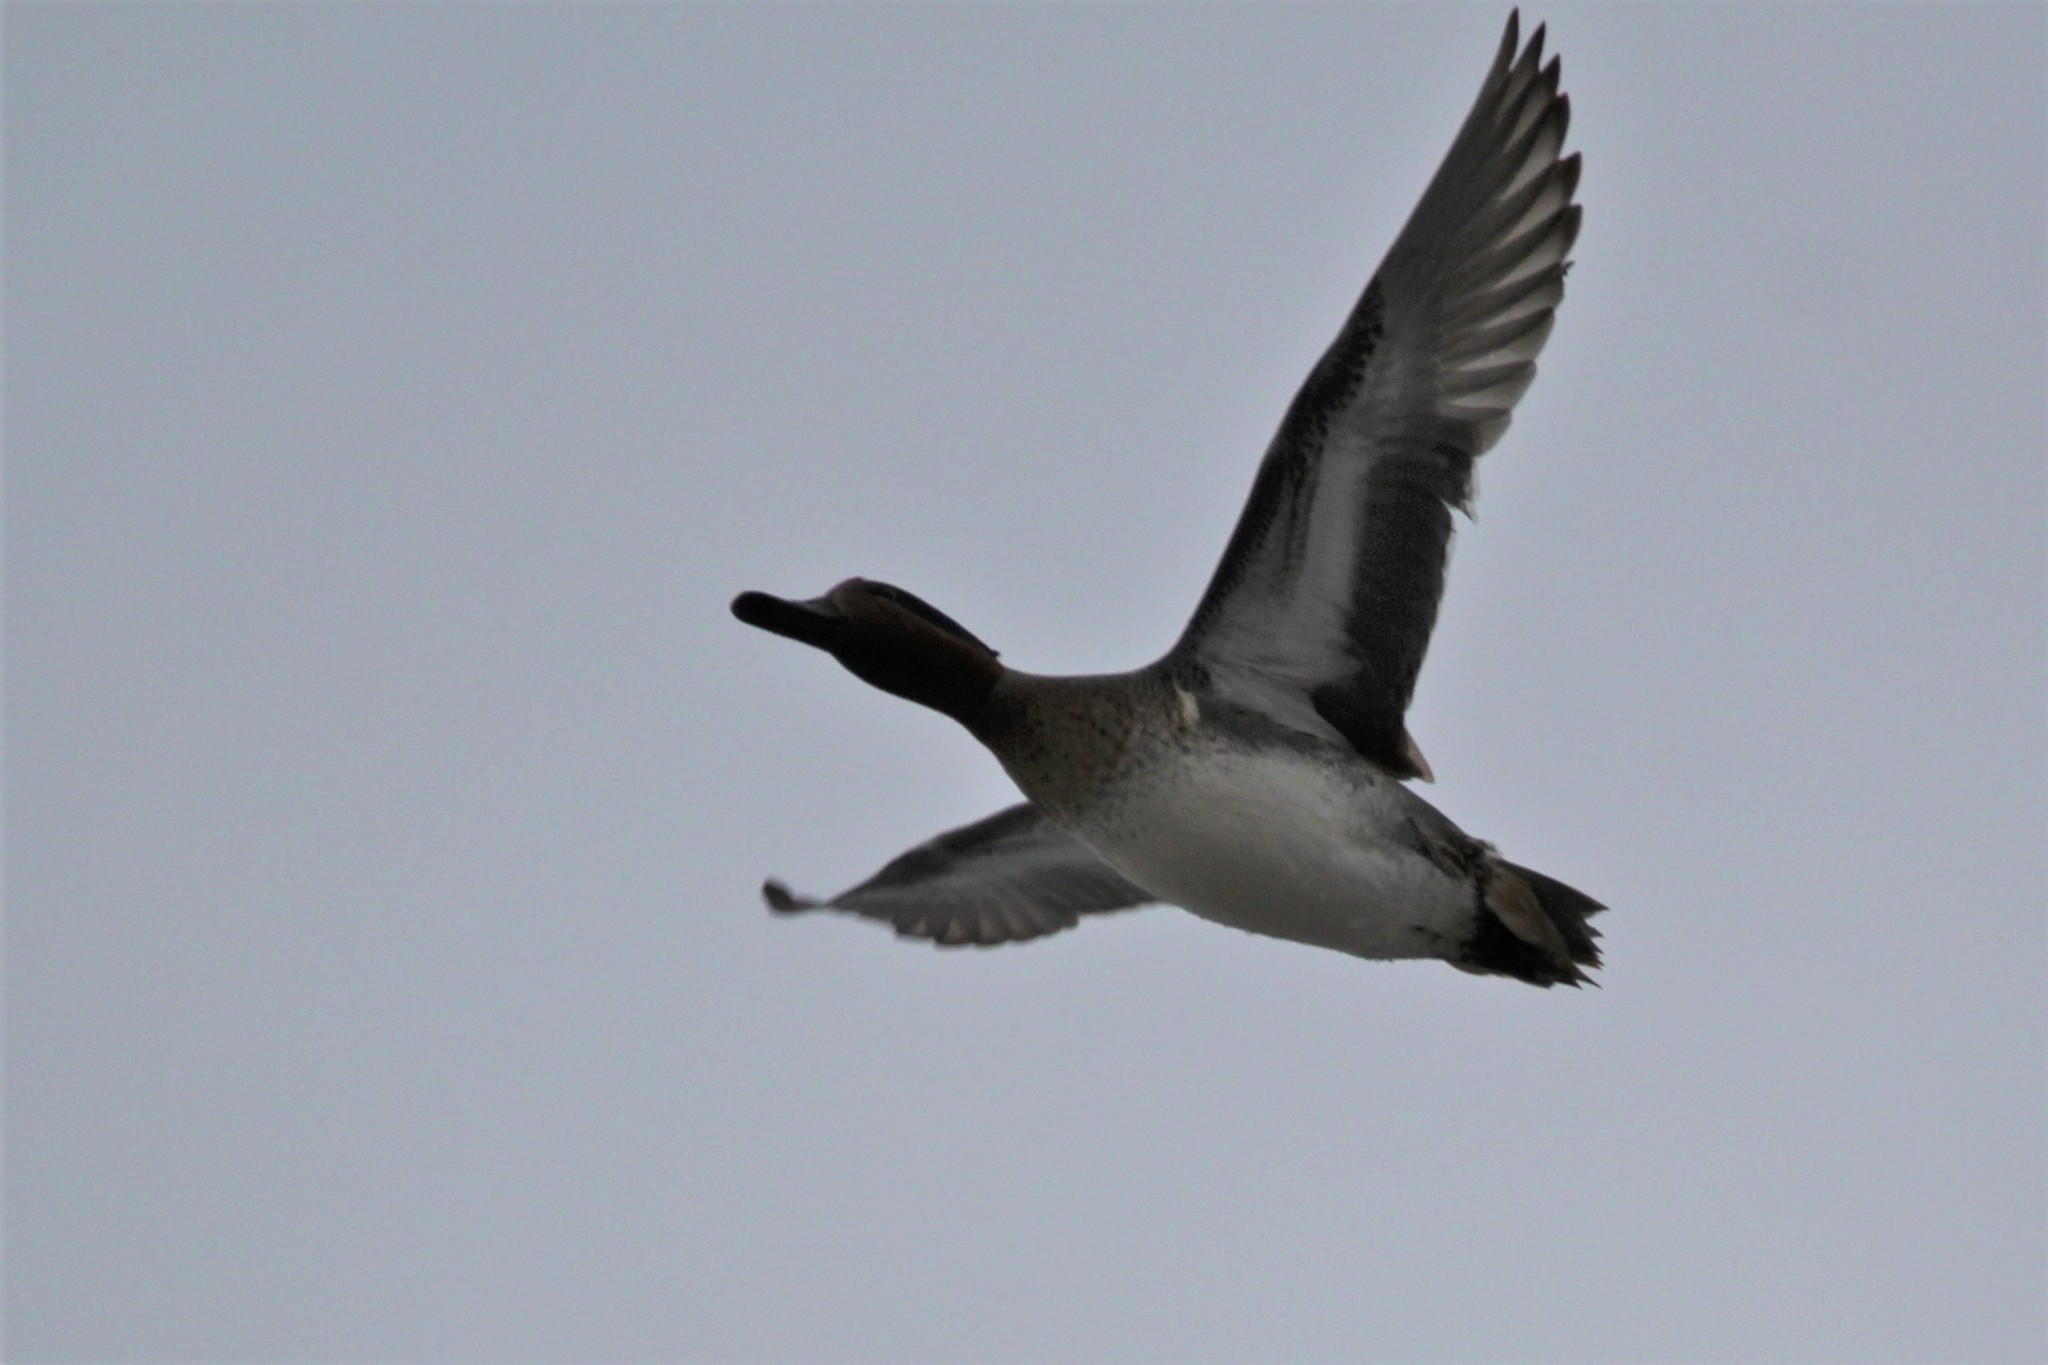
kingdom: Animalia
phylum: Chordata
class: Aves
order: Anseriformes
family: Anatidae
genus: Anas
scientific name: Anas crecca
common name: Eurasian teal
